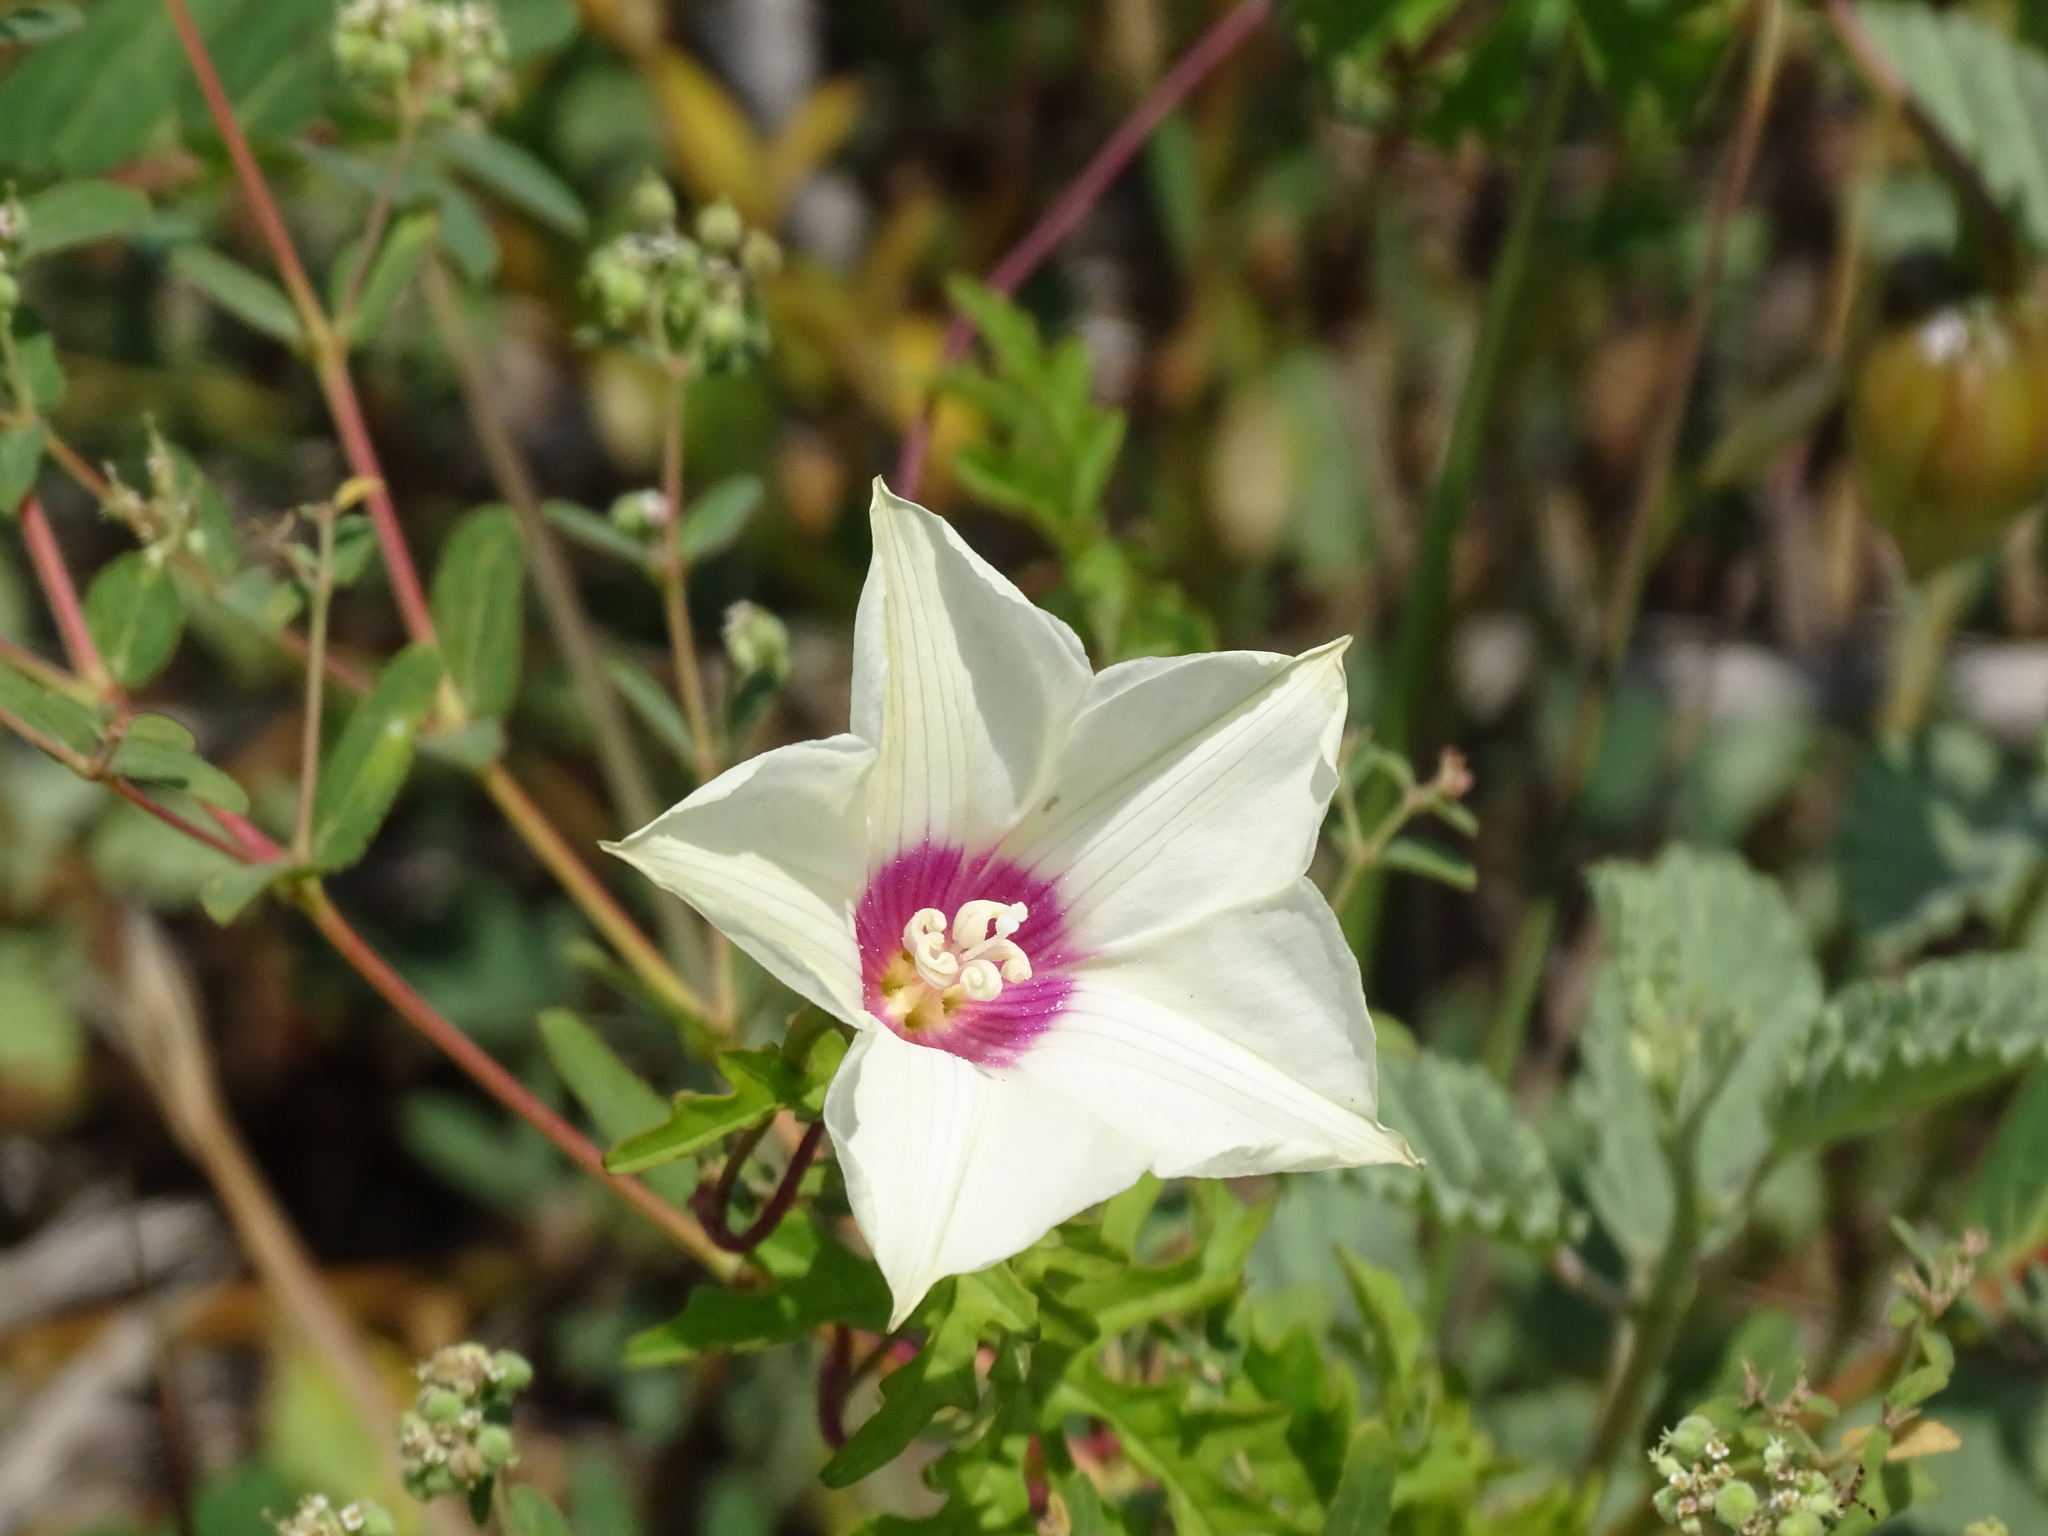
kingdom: Plantae
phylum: Tracheophyta
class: Magnoliopsida
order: Solanales
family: Convolvulaceae
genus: Distimake
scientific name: Distimake dissectus
